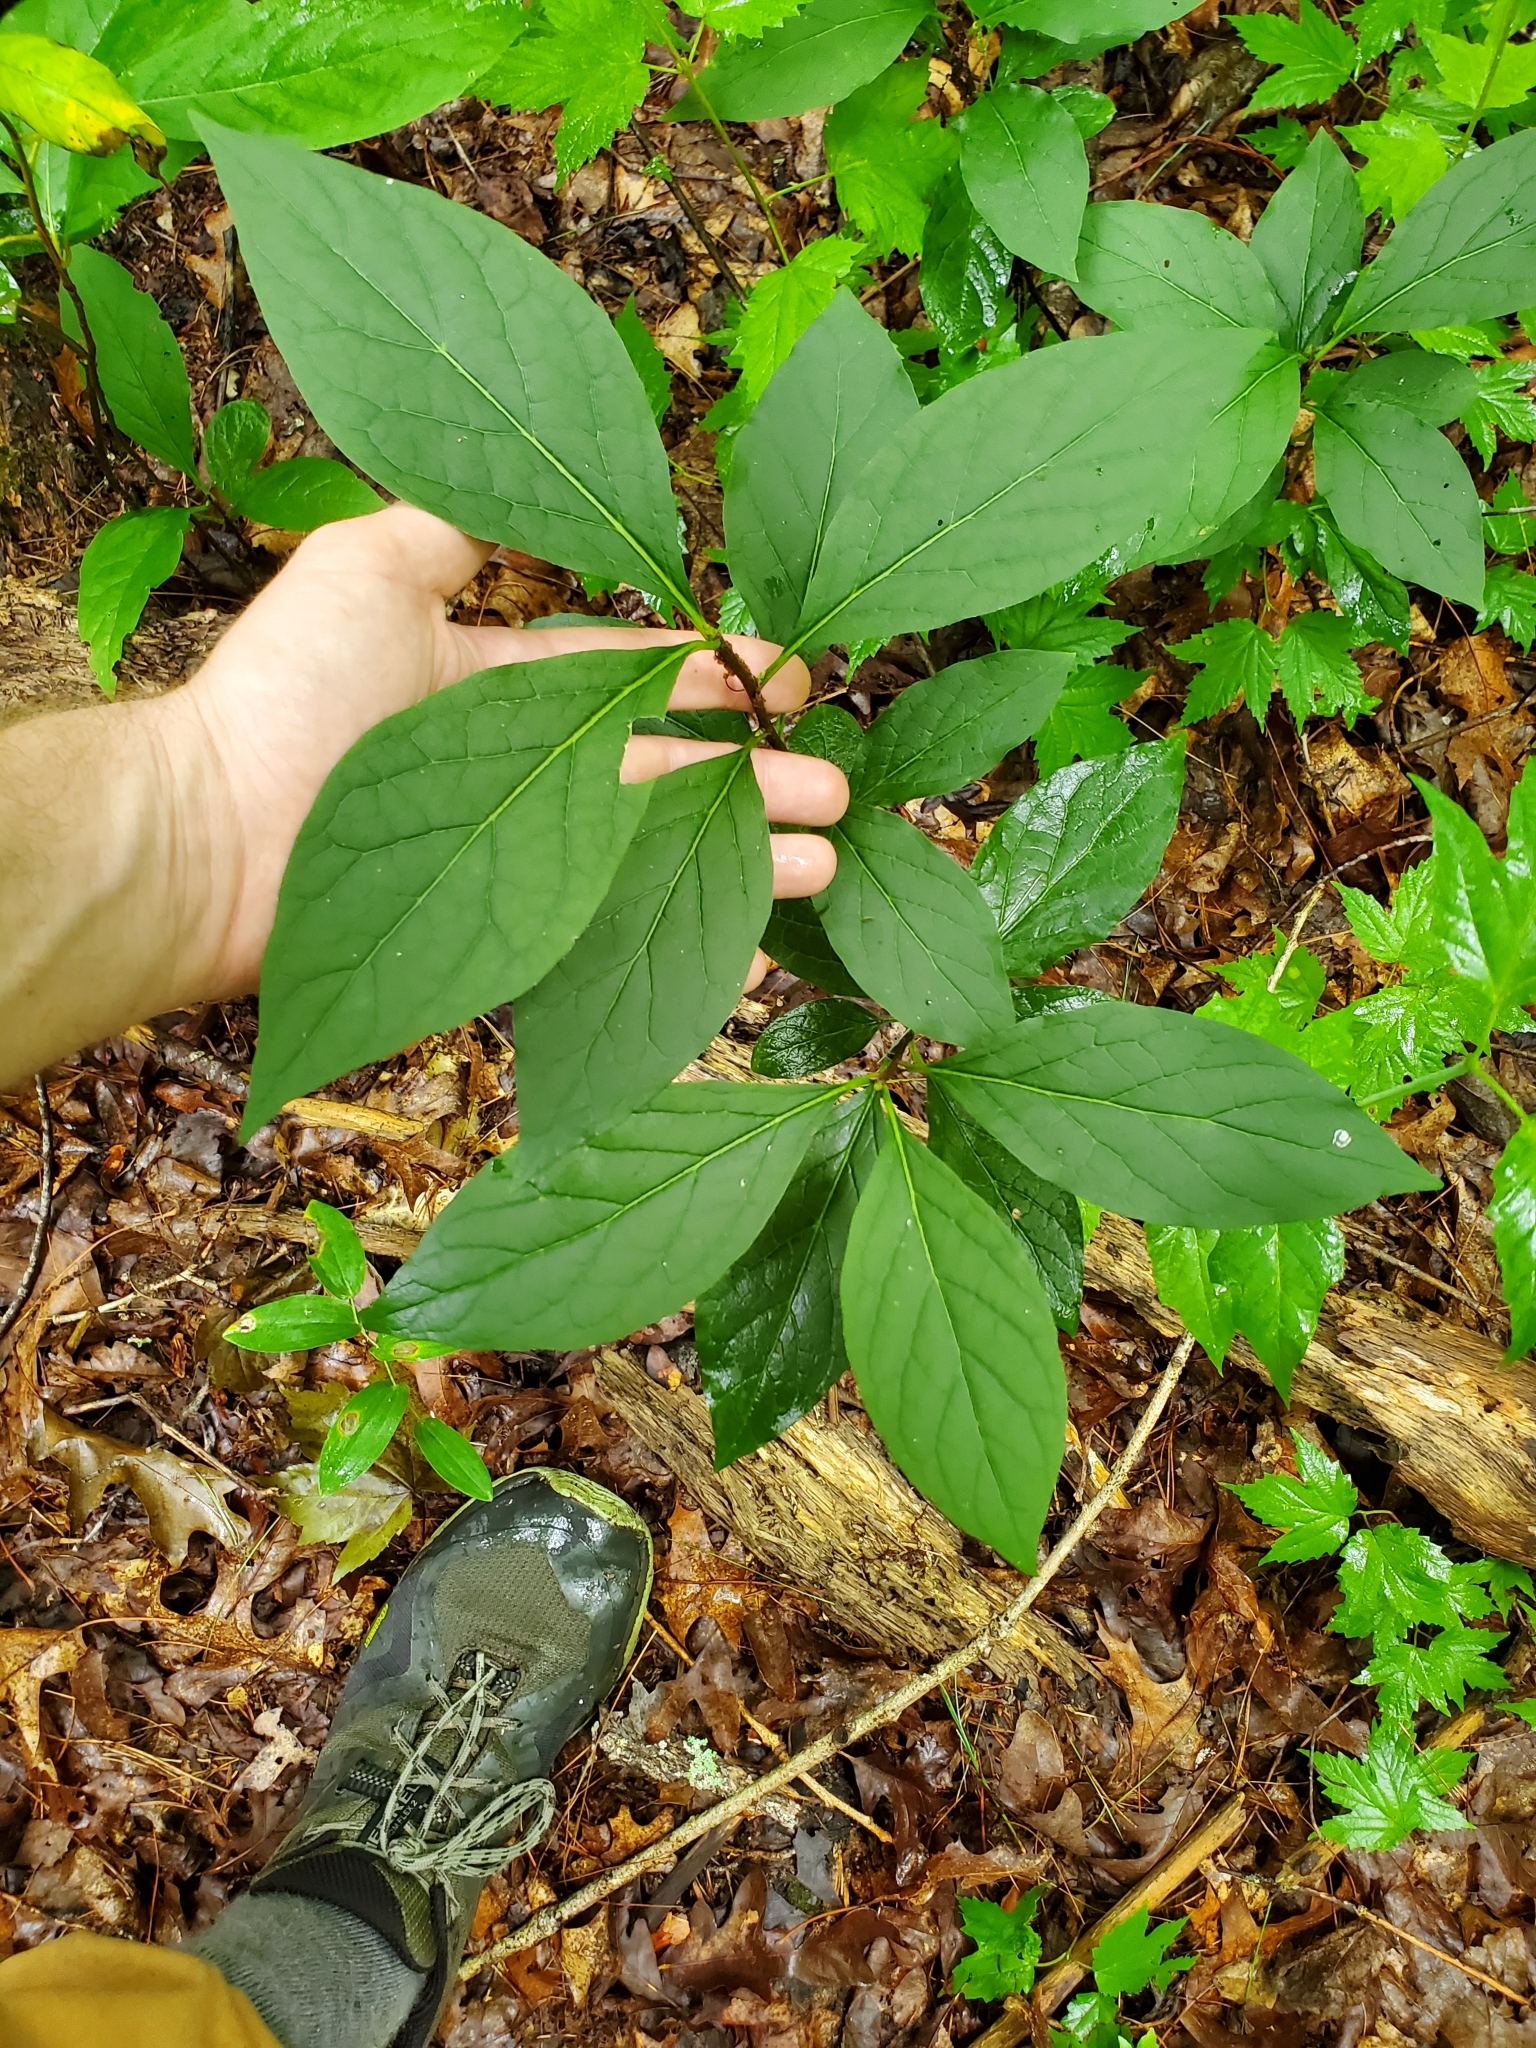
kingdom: Plantae
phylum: Tracheophyta
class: Magnoliopsida
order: Santalales
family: Cervantesiaceae
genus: Pyrularia
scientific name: Pyrularia pubera
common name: Oilnut
